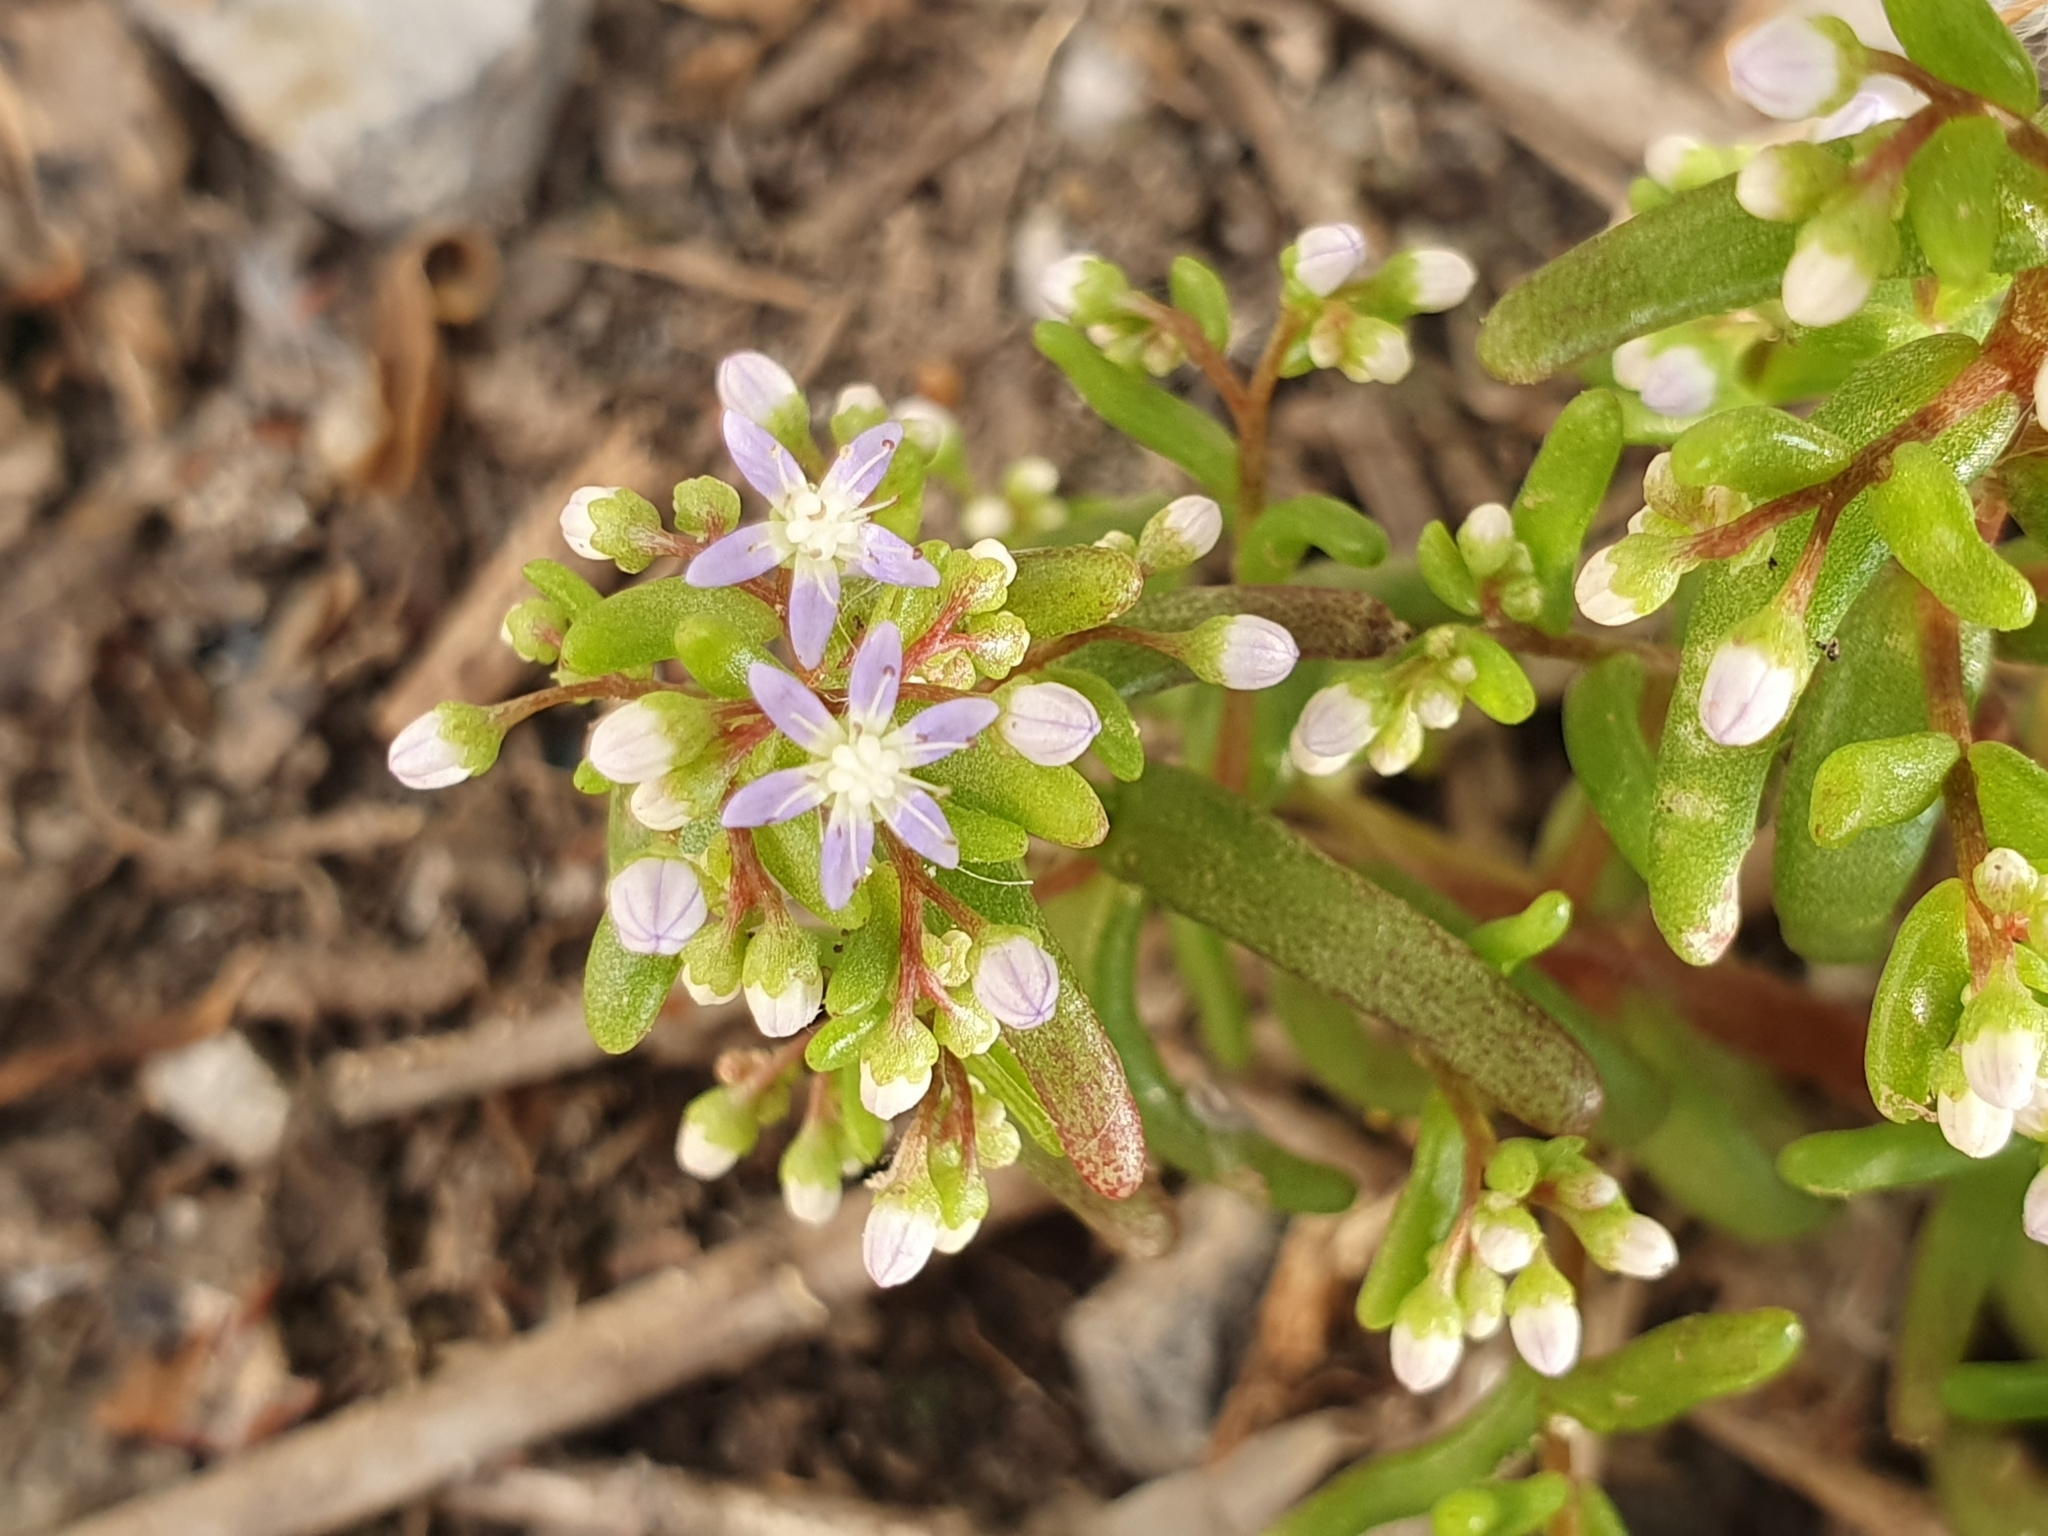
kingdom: Plantae
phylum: Tracheophyta
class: Magnoliopsida
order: Saxifragales
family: Crassulaceae
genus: Sedum
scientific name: Sedum caeruleum
